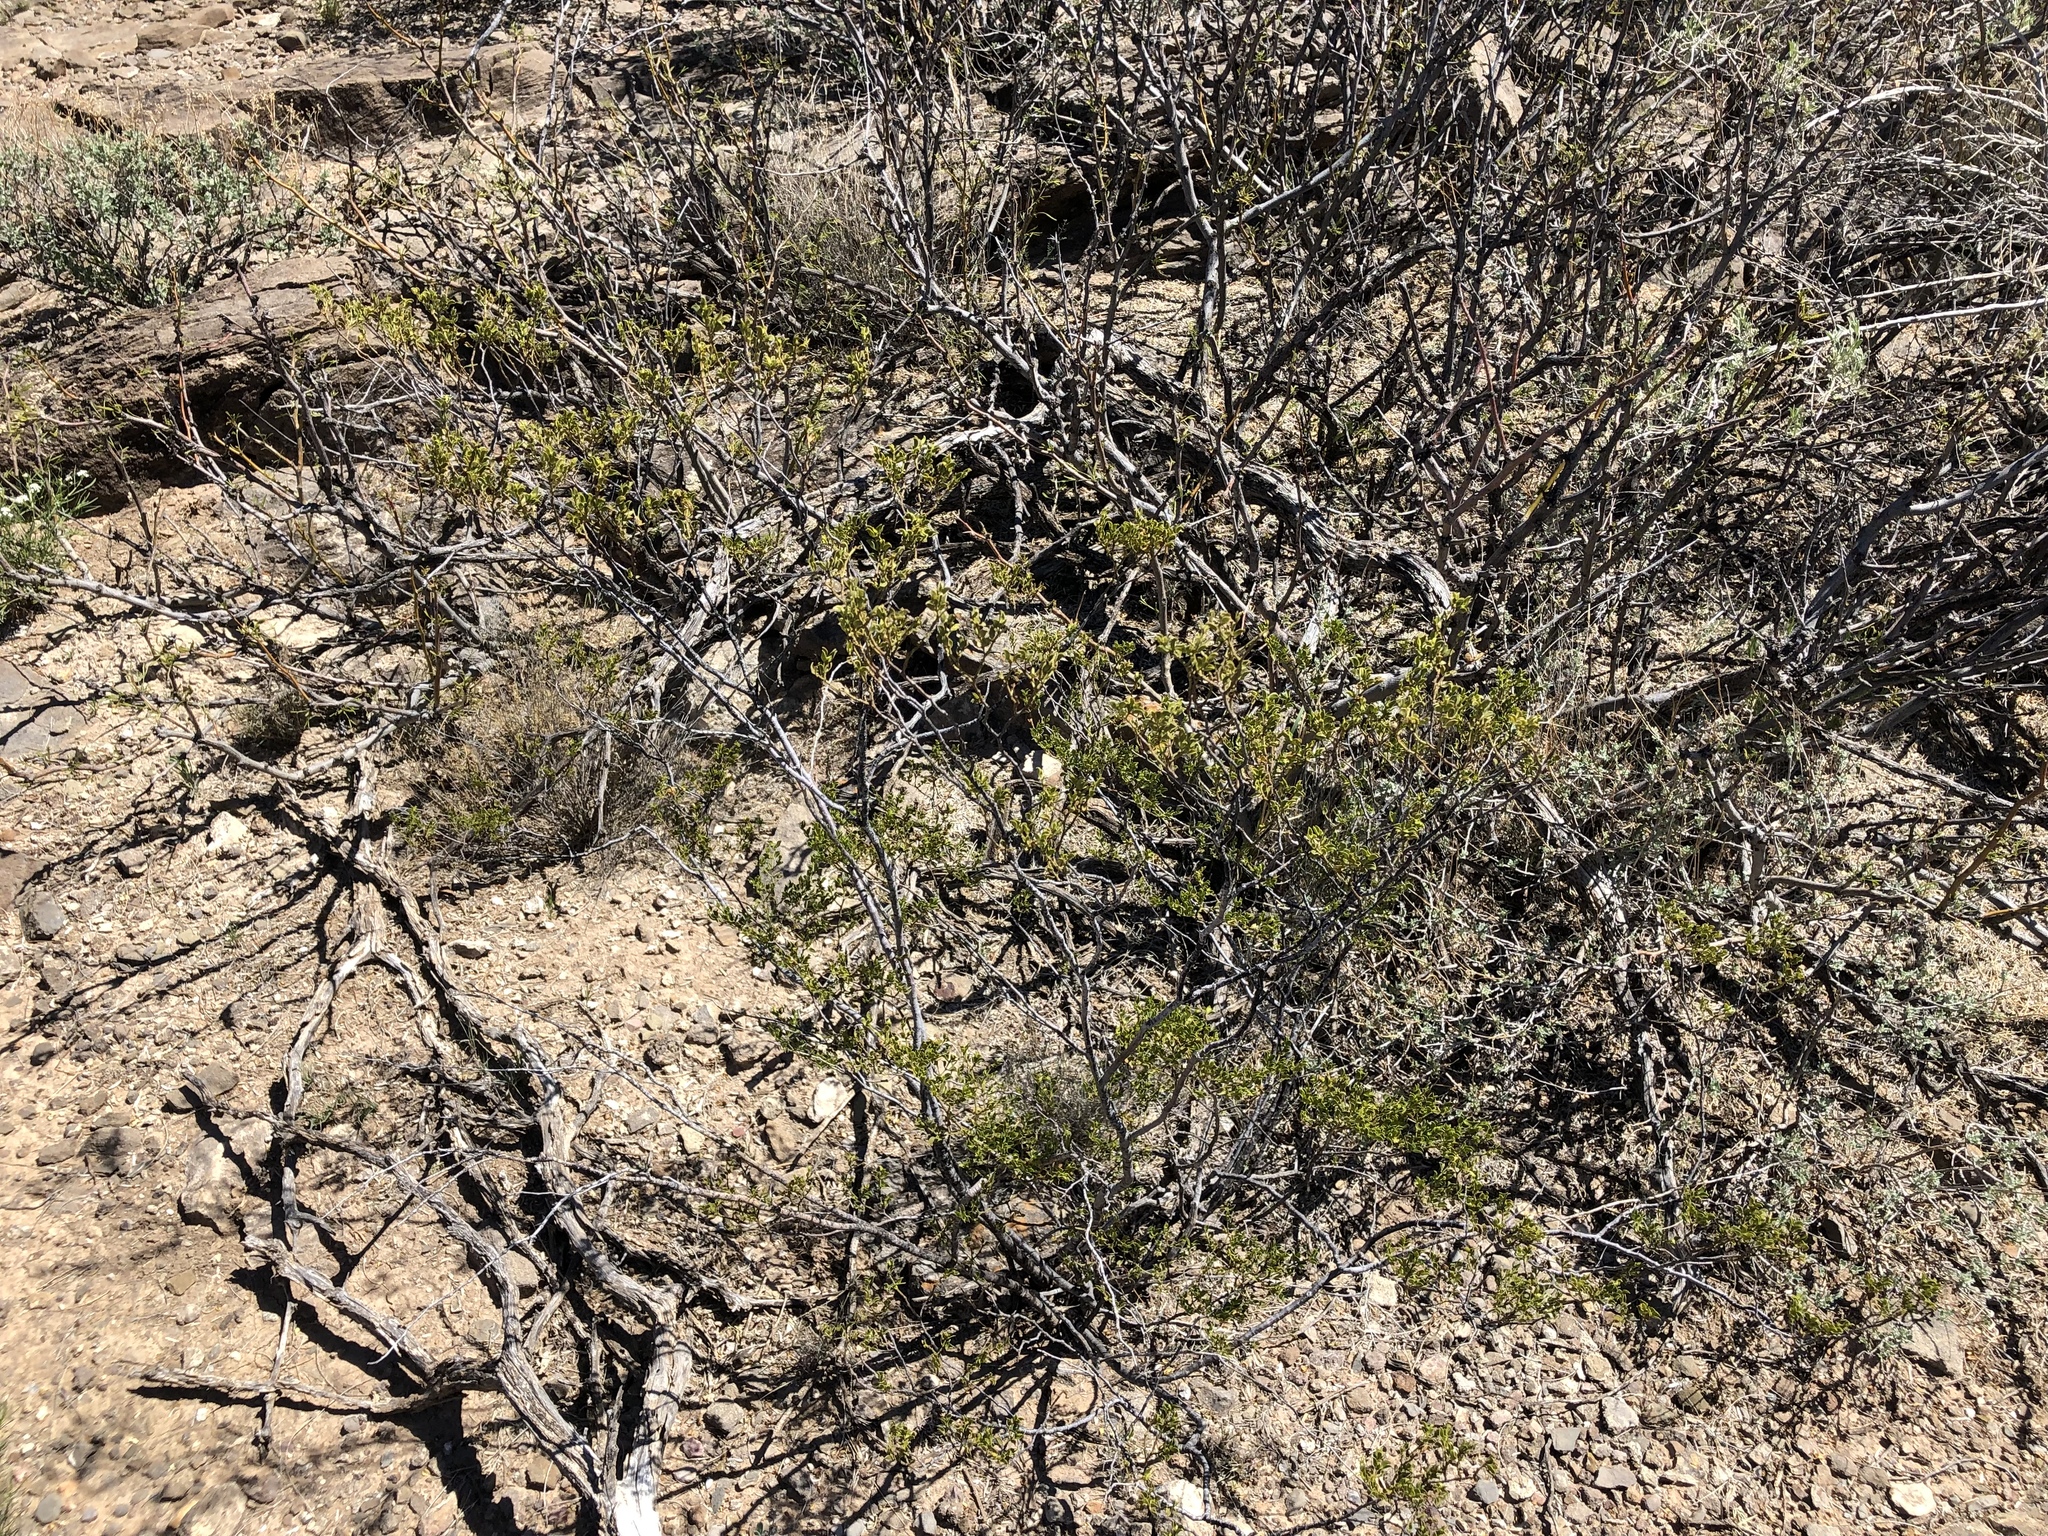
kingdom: Plantae
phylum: Tracheophyta
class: Magnoliopsida
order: Zygophyllales
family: Zygophyllaceae
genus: Larrea
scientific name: Larrea tridentata
